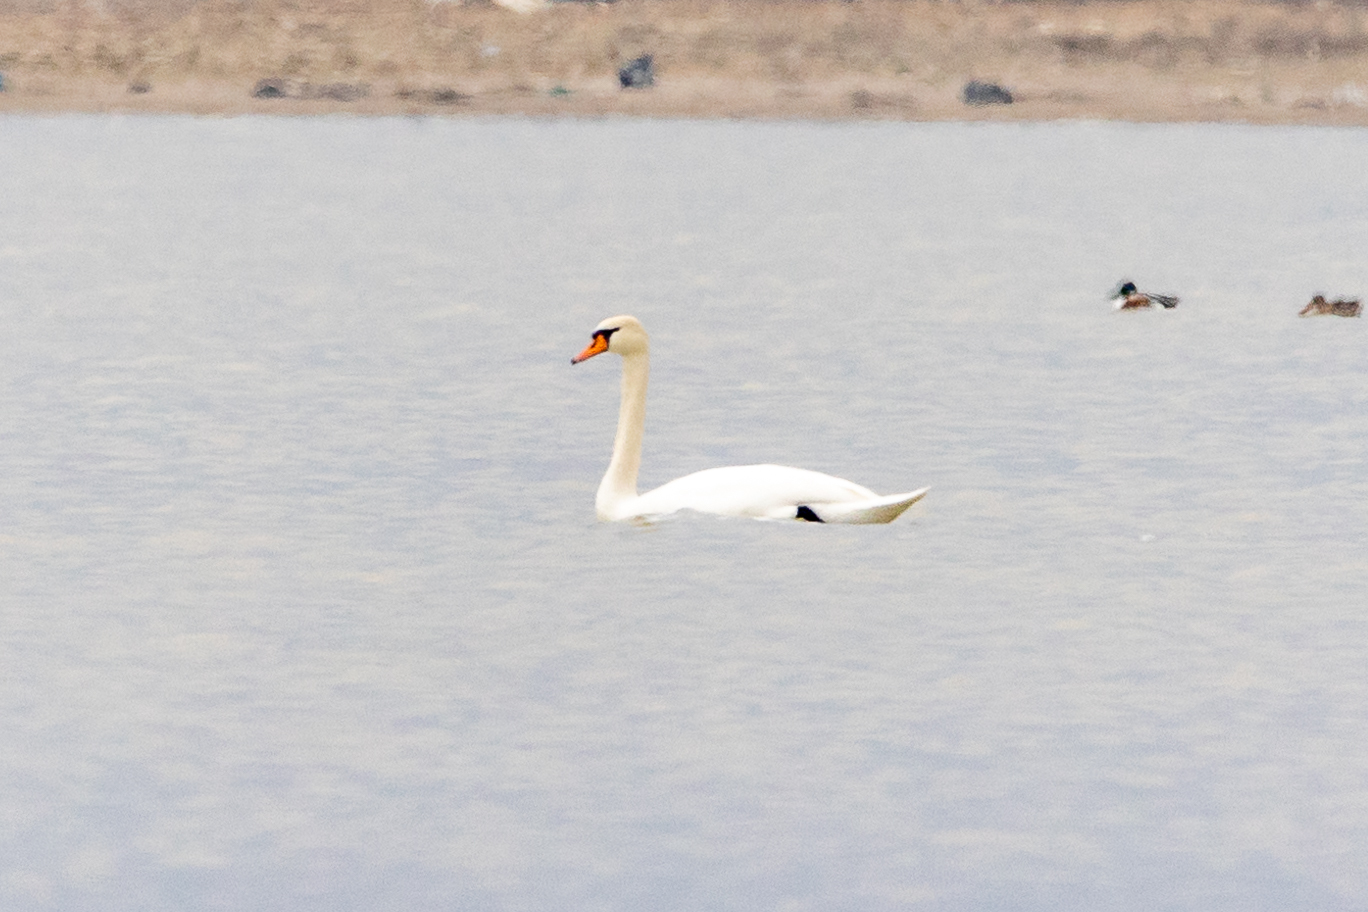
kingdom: Animalia
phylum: Chordata
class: Aves
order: Anseriformes
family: Anatidae
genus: Cygnus
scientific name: Cygnus olor
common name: Mute swan
